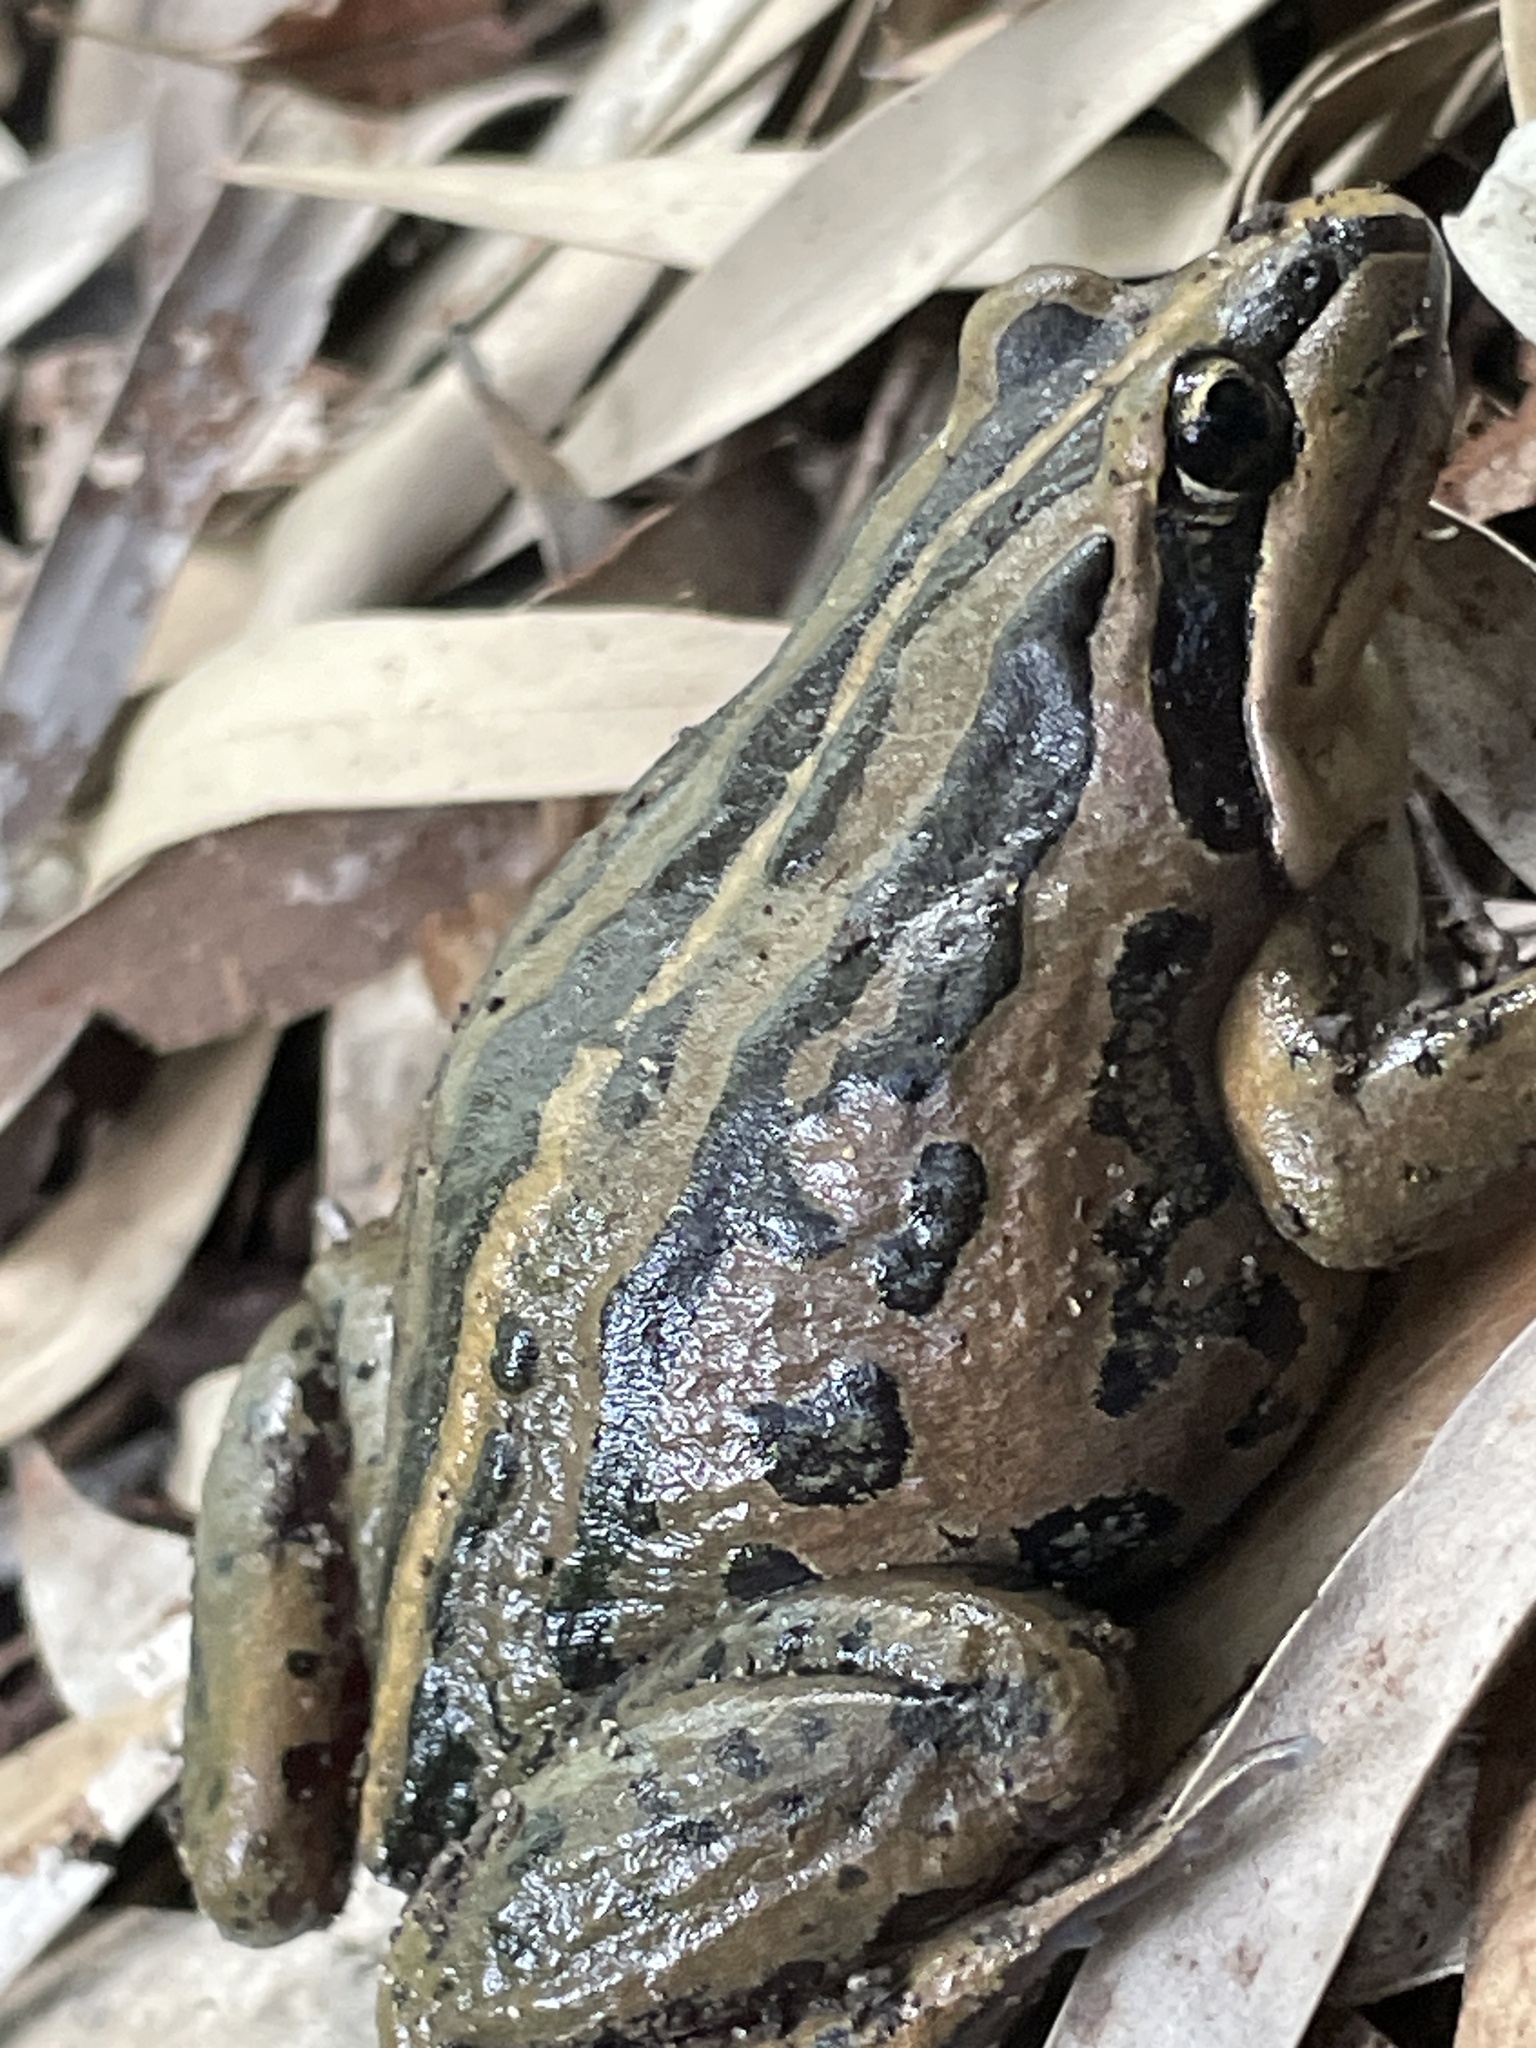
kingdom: Animalia
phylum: Chordata
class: Amphibia
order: Anura
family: Limnodynastidae
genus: Limnodynastes
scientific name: Limnodynastes peronii
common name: Brown frog
